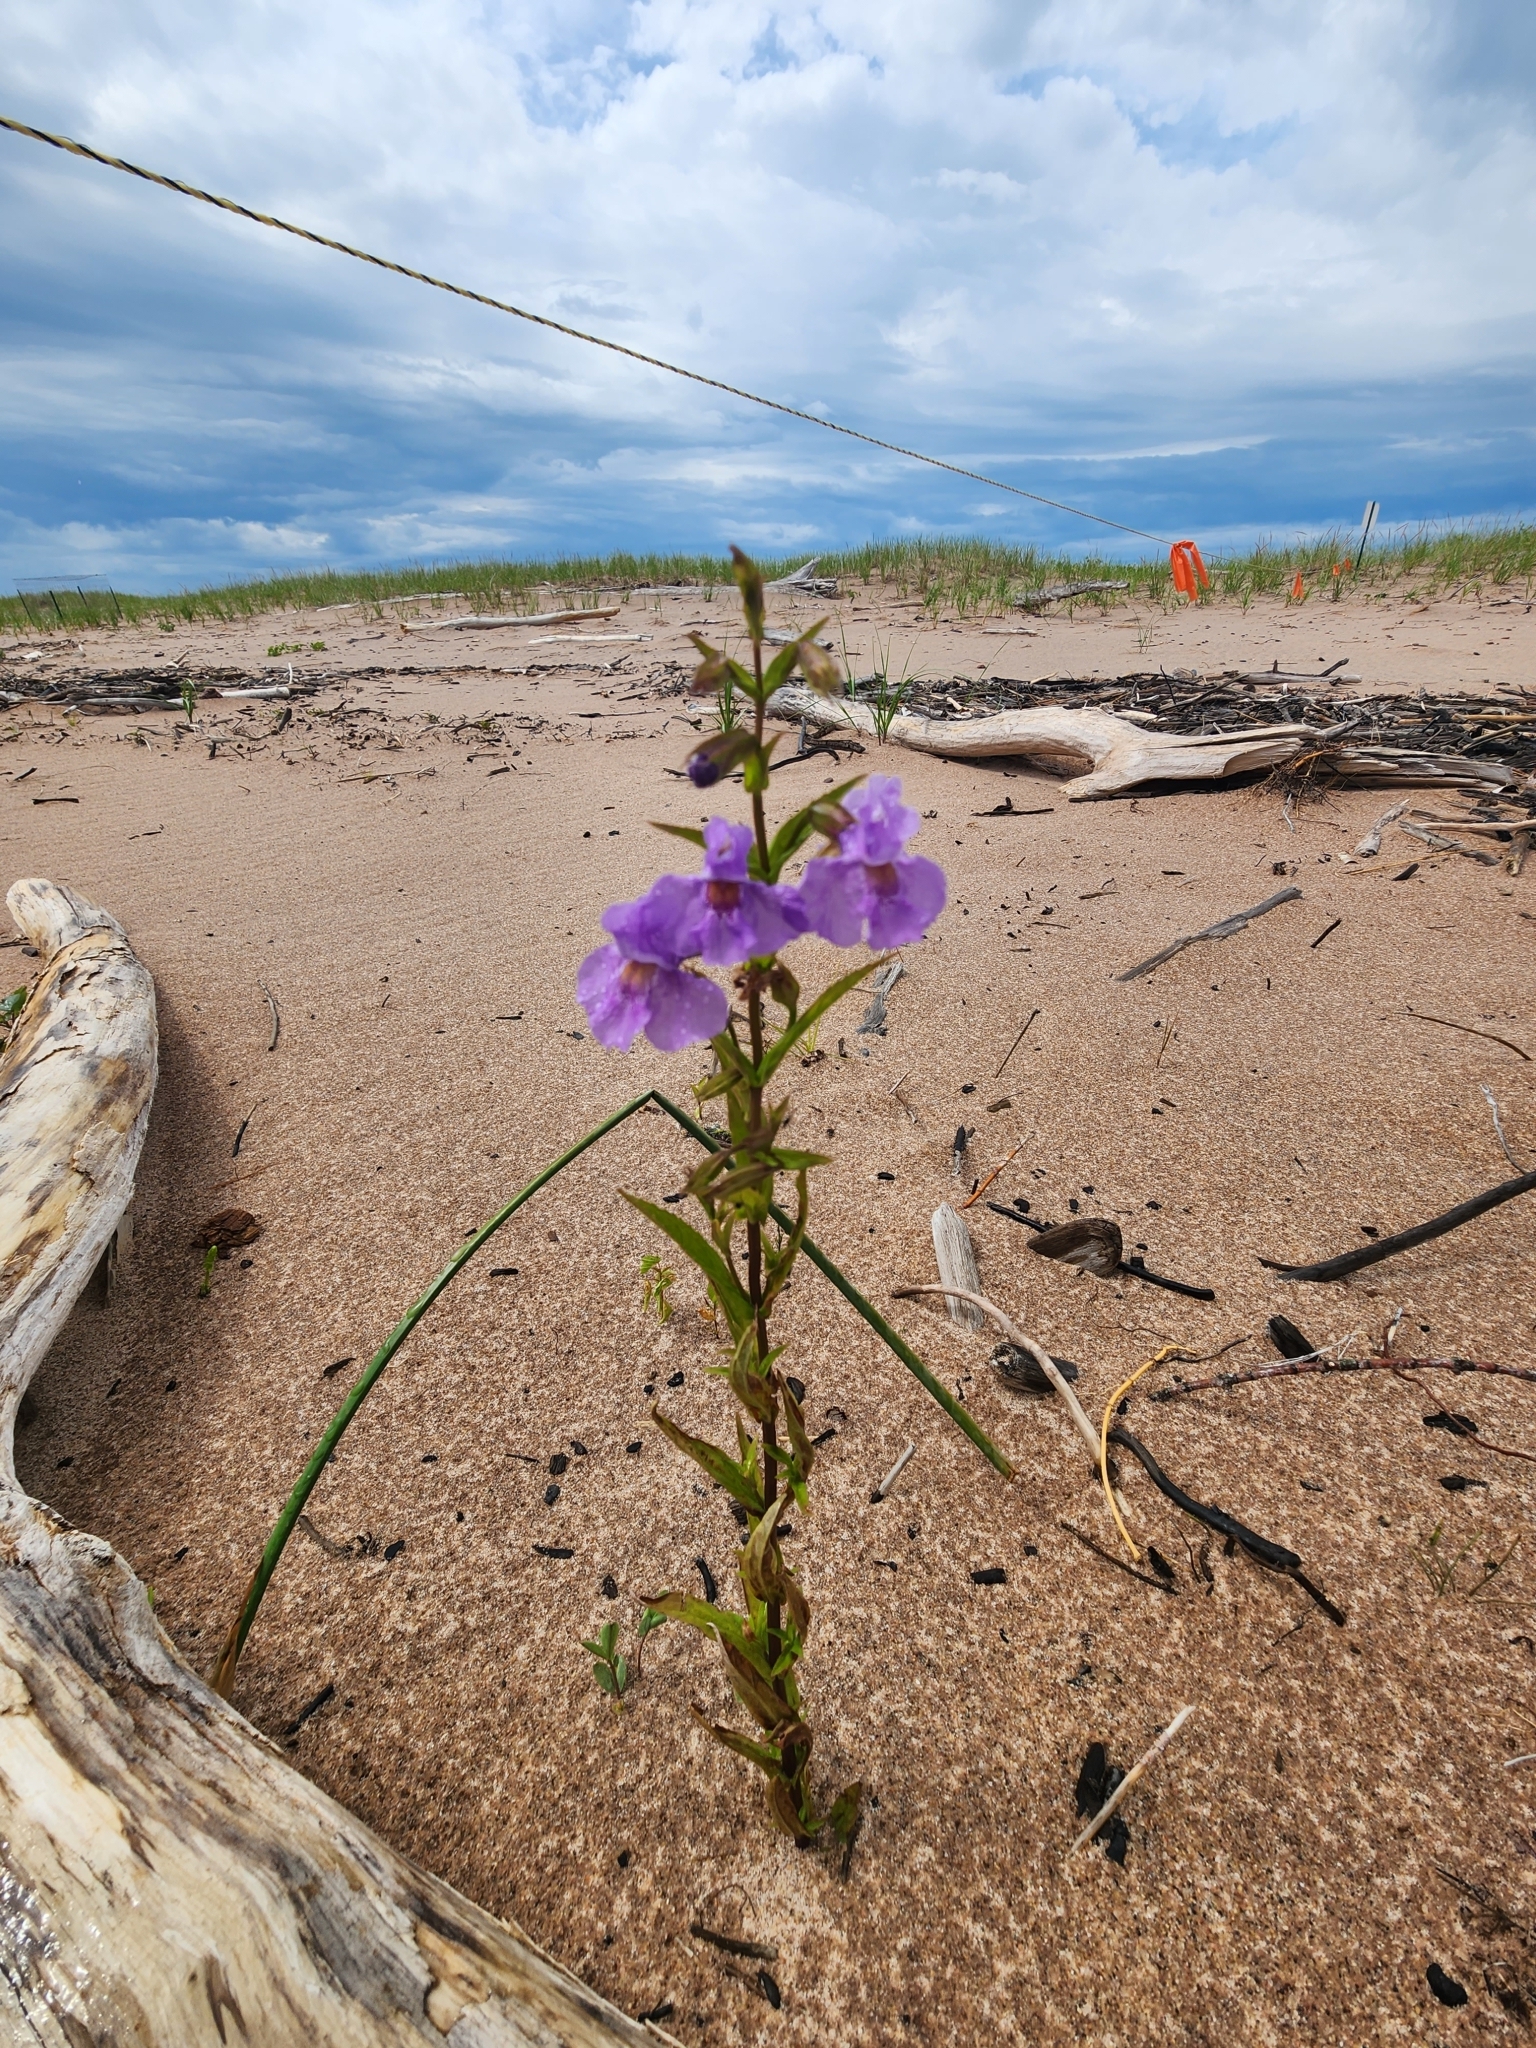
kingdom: Plantae
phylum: Tracheophyta
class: Magnoliopsida
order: Lamiales
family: Phrymaceae
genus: Mimulus
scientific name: Mimulus ringens
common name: Allegheny monkeyflower
